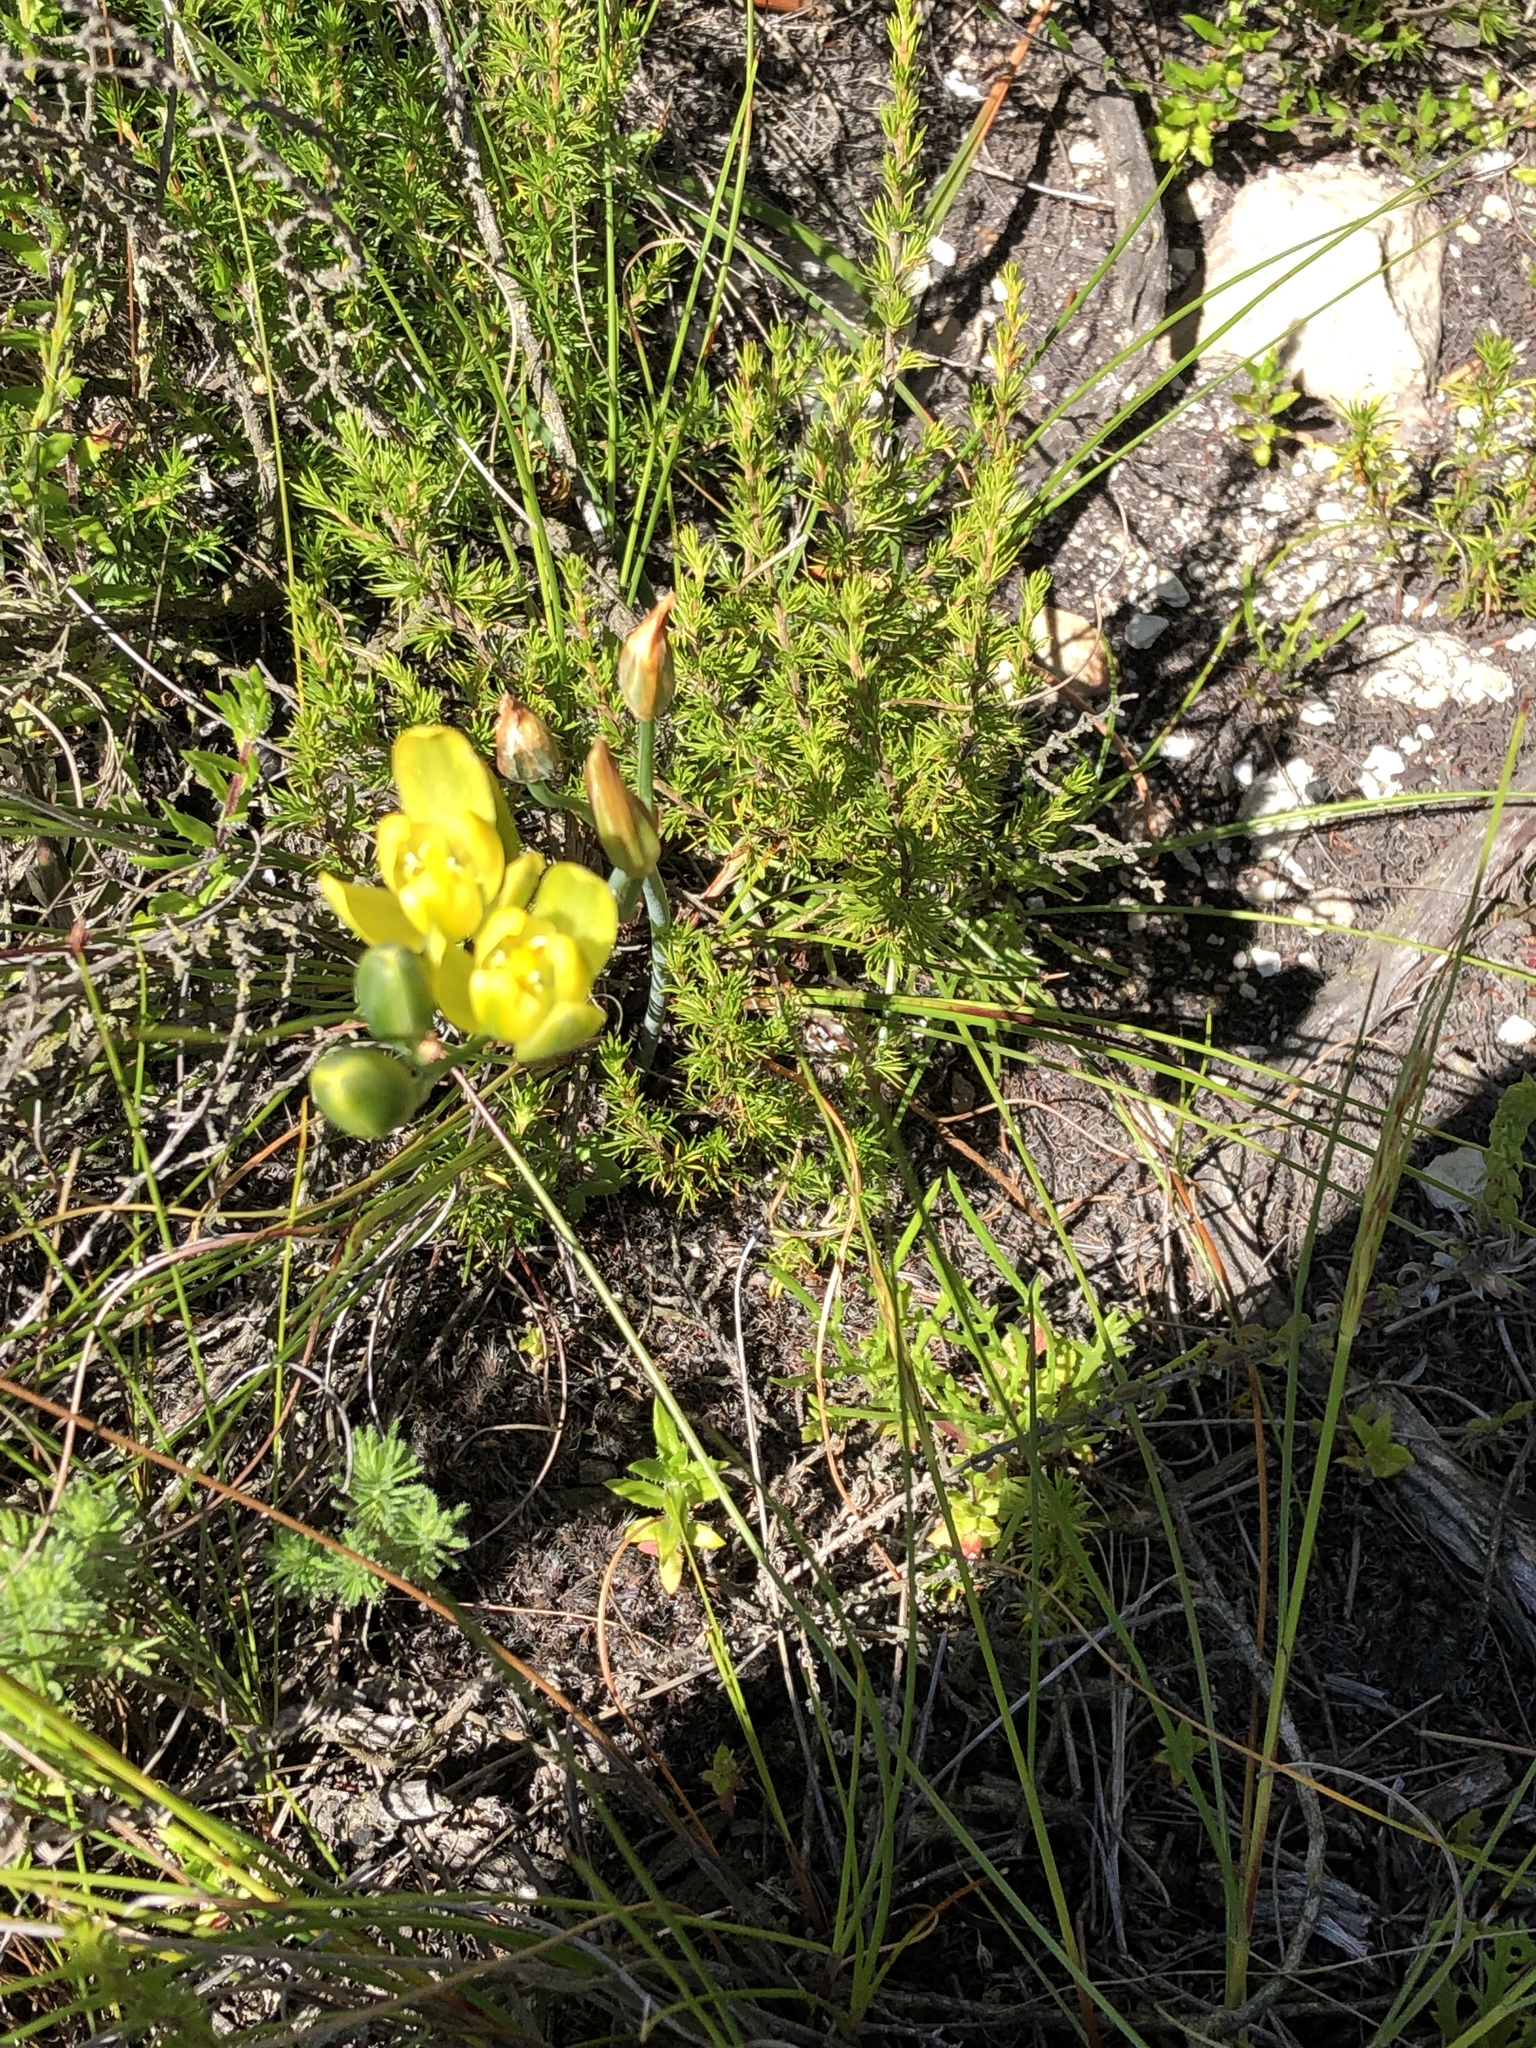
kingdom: Plantae
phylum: Tracheophyta
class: Liliopsida
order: Asparagales
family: Asparagaceae
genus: Albuca
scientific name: Albuca aurea
